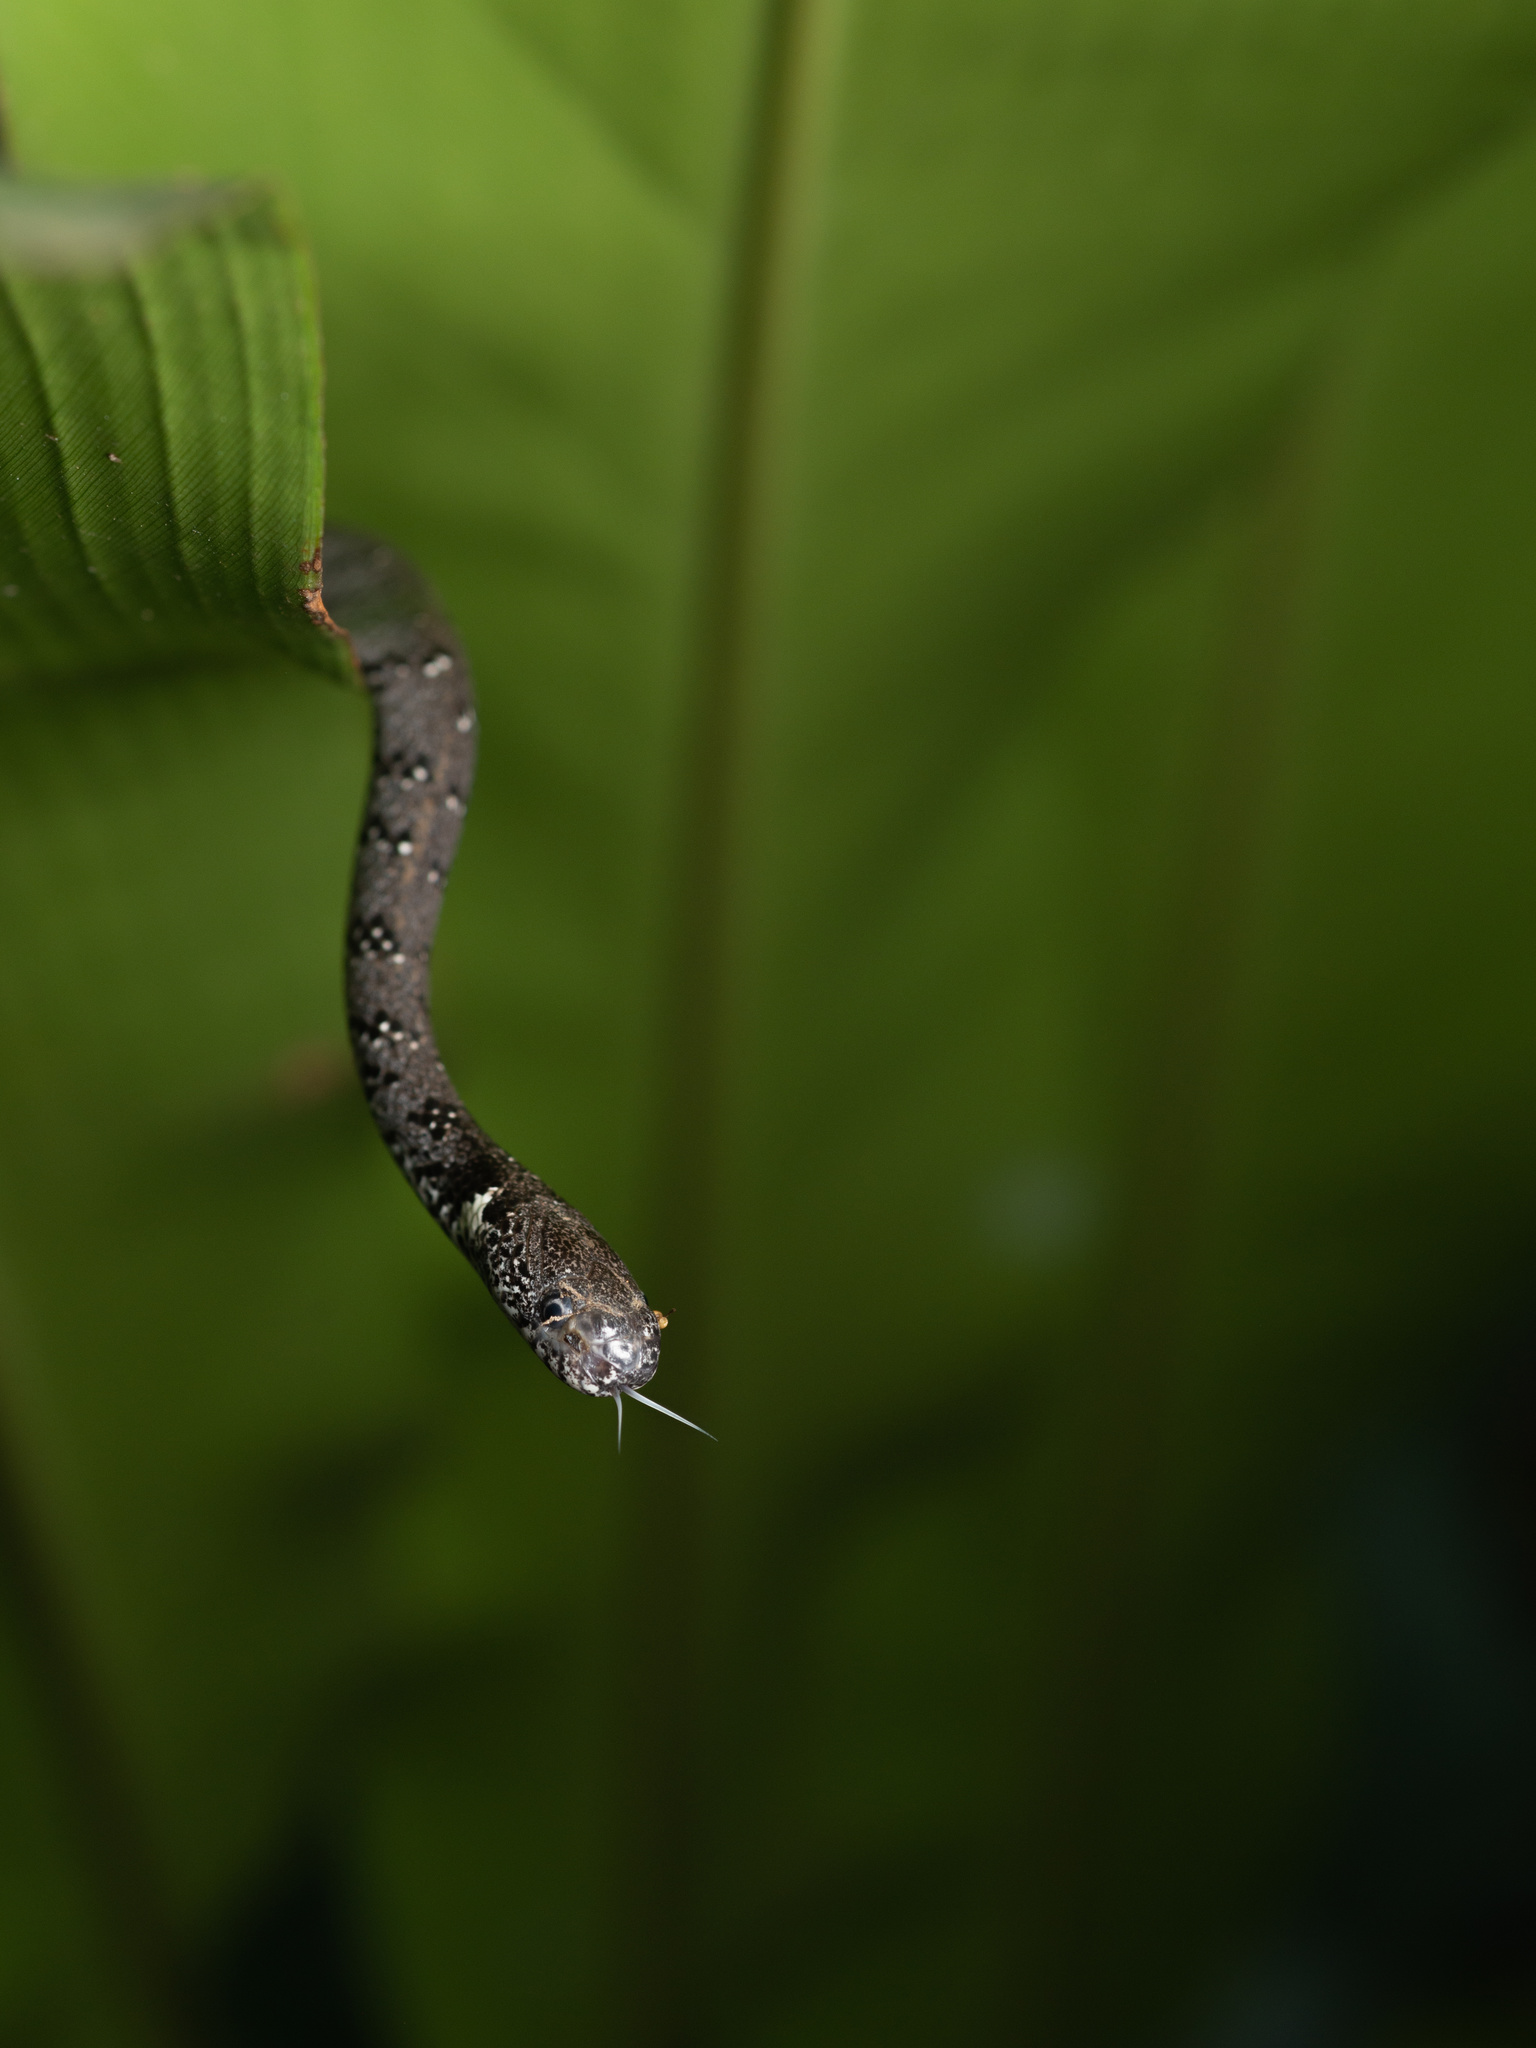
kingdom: Animalia
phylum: Chordata
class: Squamata
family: Pareidae
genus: Pareas
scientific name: Pareas margaritophorus
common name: Mountain slug snake
